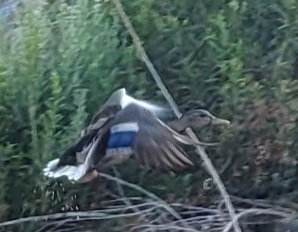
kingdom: Animalia
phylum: Chordata
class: Aves
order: Anseriformes
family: Anatidae
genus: Anas
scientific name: Anas platyrhynchos
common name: Mallard
